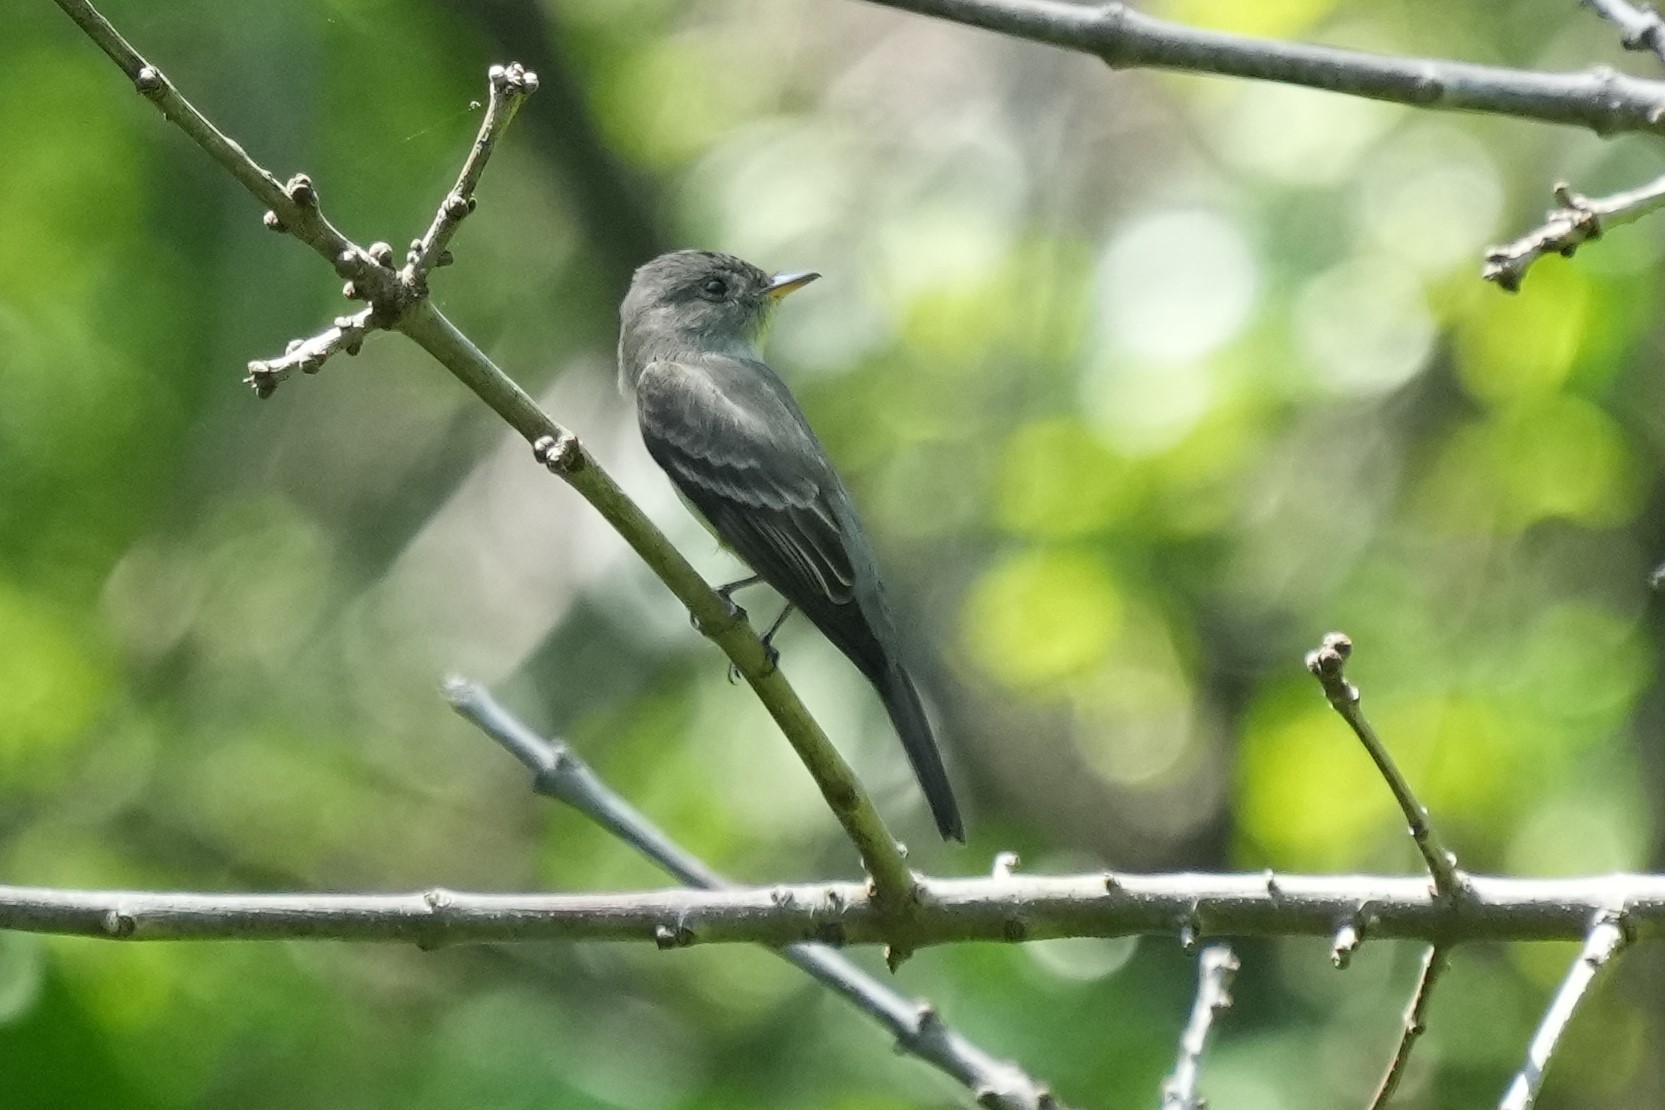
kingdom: Animalia
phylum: Chordata
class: Aves
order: Passeriformes
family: Tyrannidae
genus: Contopus
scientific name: Contopus virens
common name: Eastern wood-pewee
